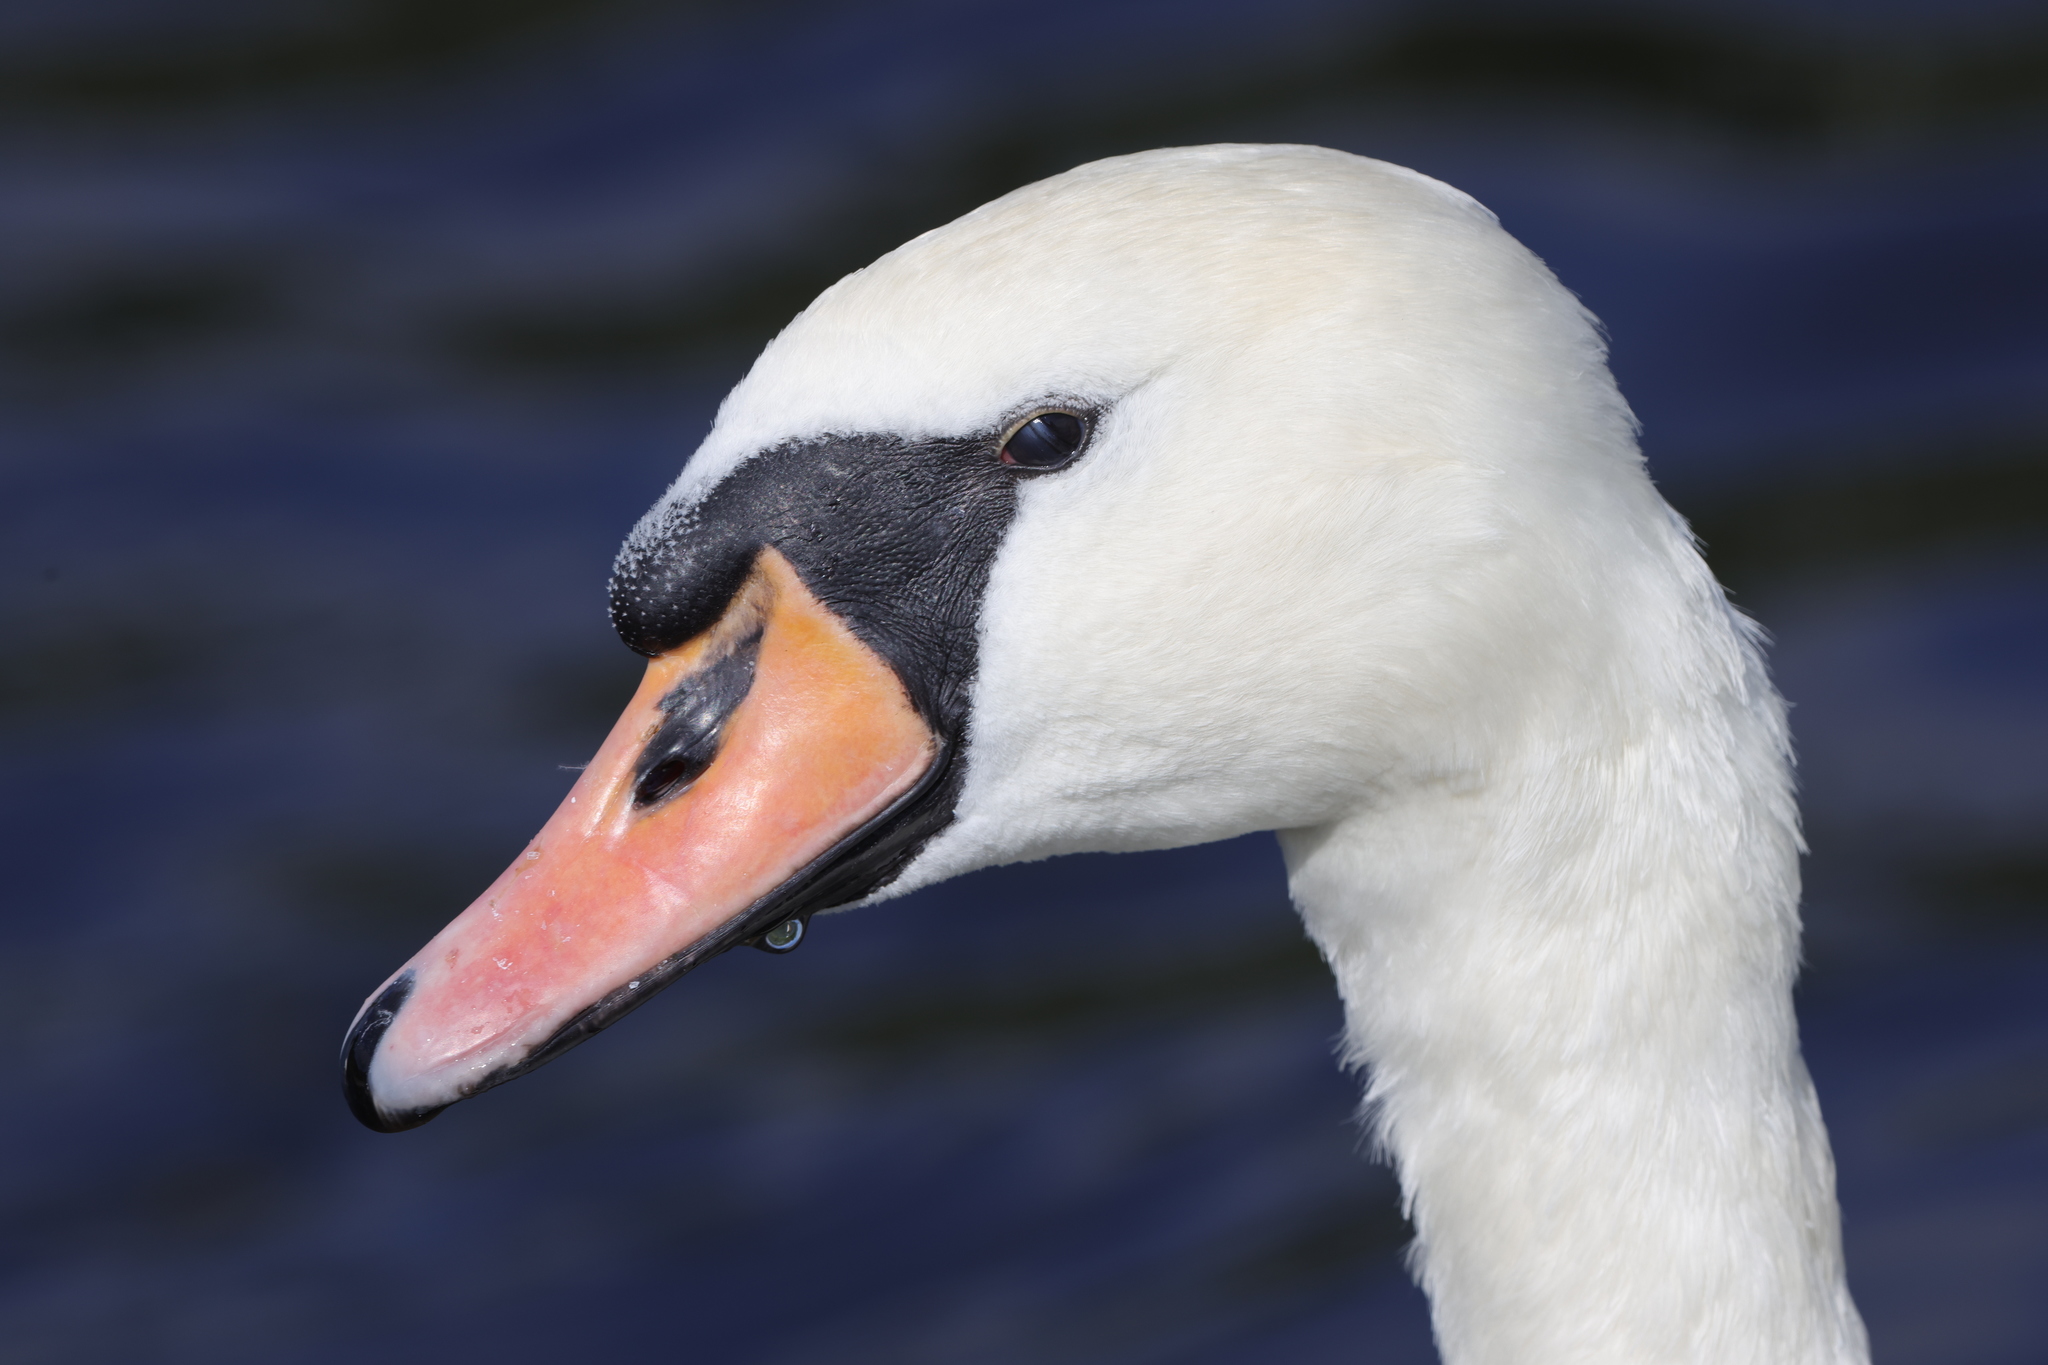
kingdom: Animalia
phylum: Chordata
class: Aves
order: Anseriformes
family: Anatidae
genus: Cygnus
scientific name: Cygnus olor
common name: Mute swan
